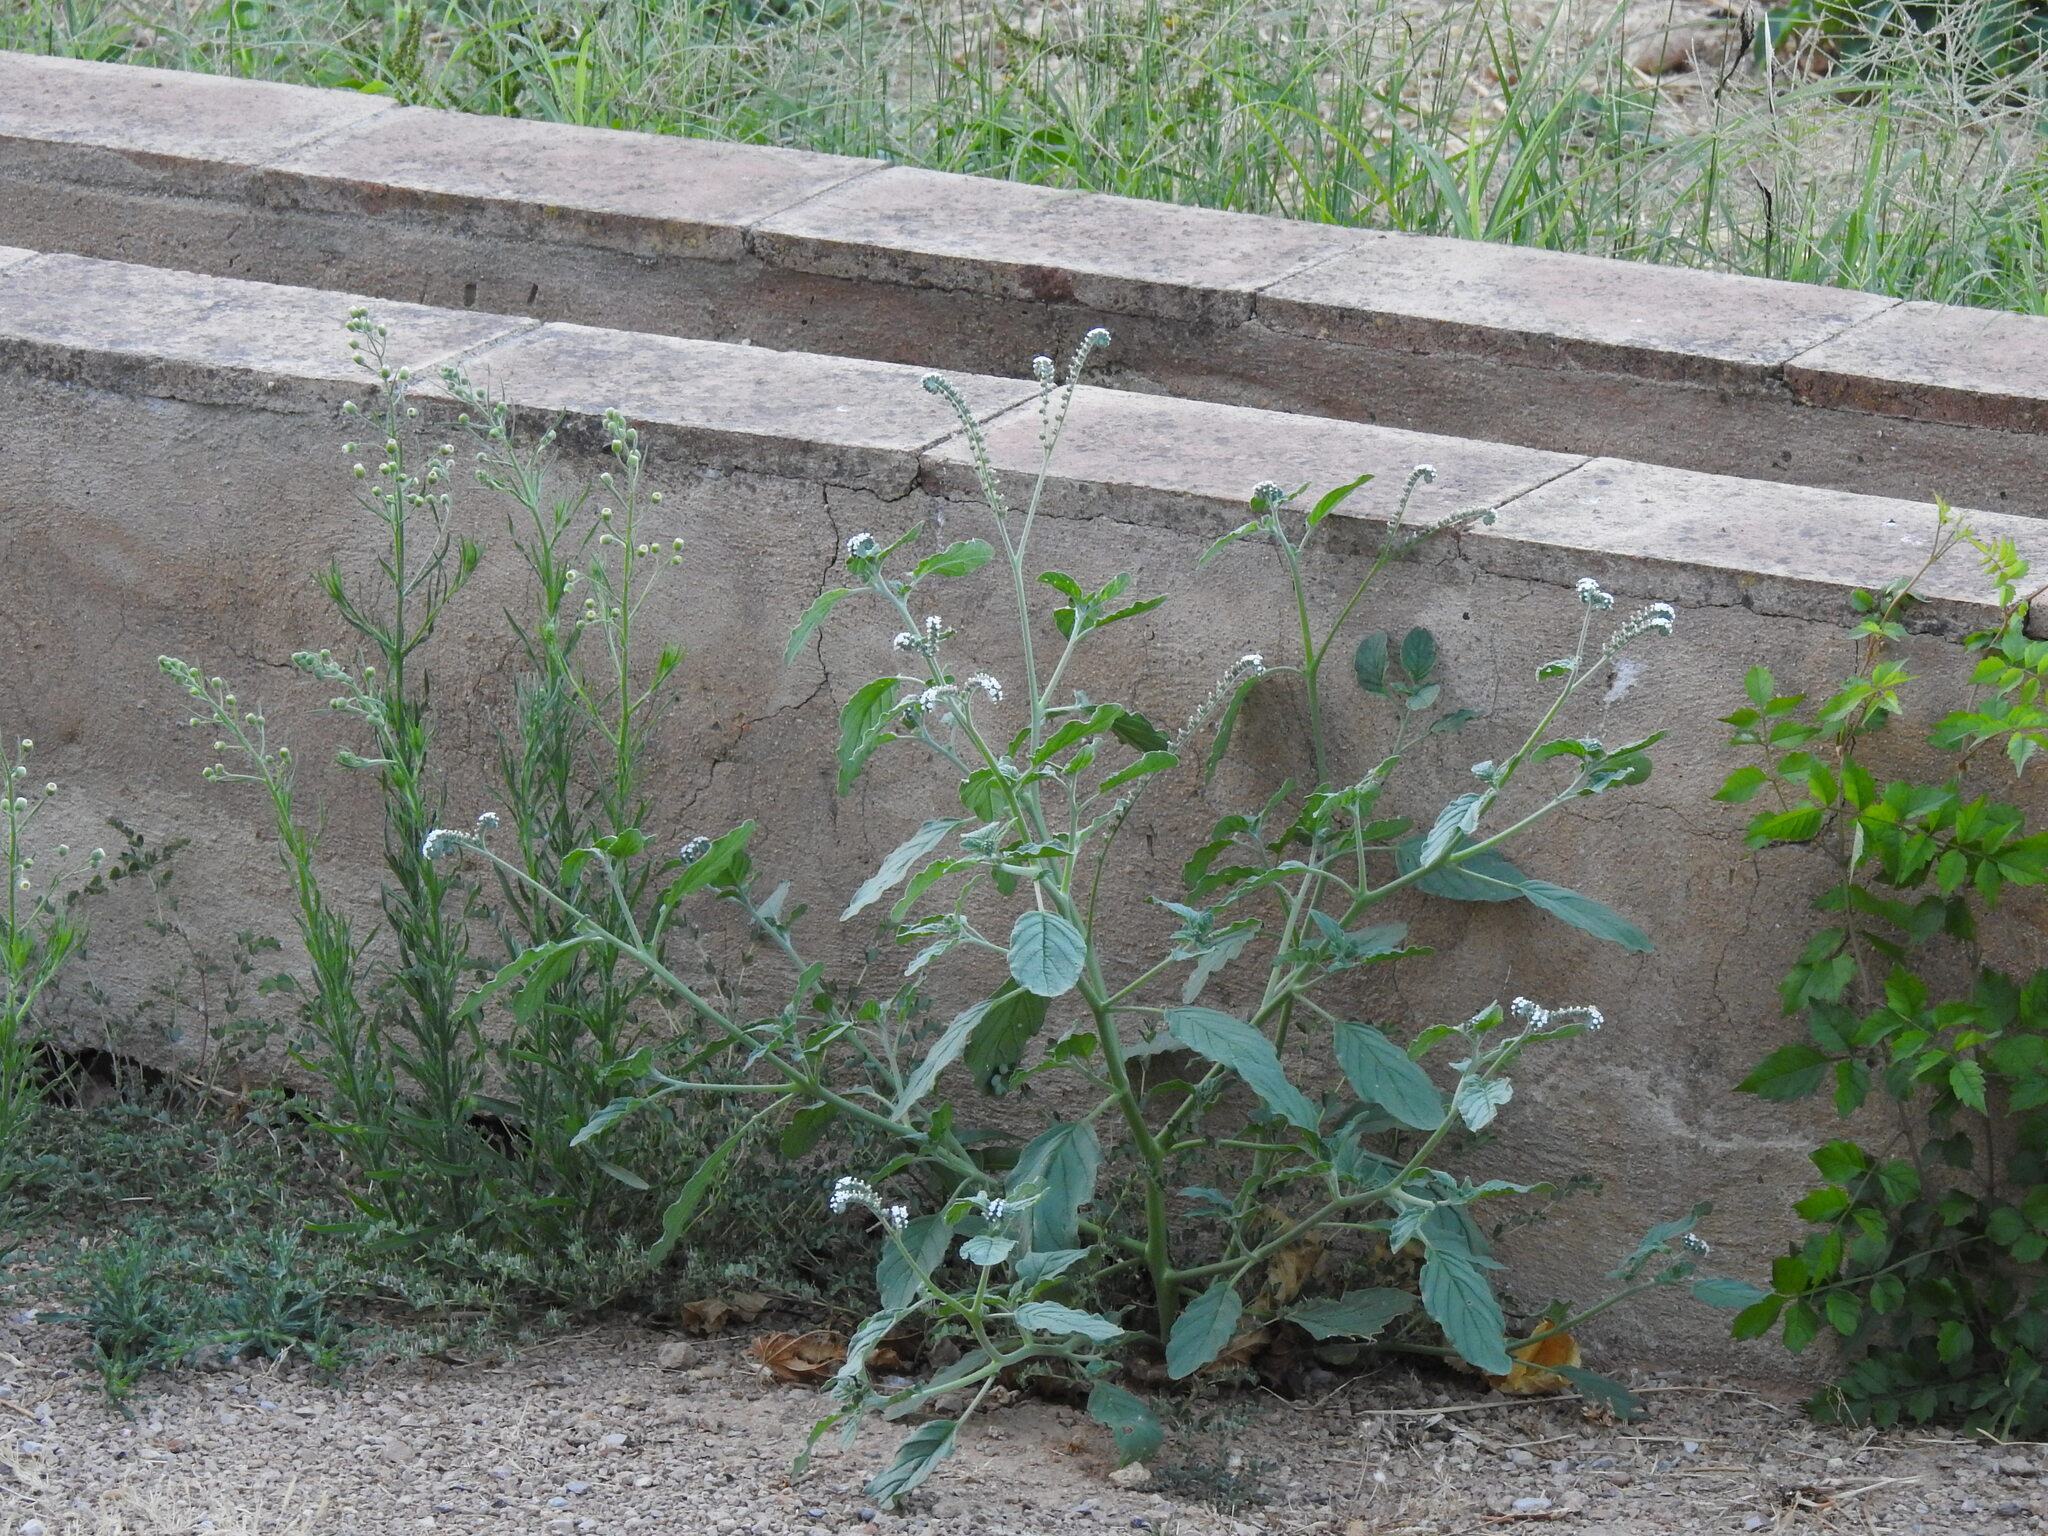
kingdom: Plantae
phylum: Tracheophyta
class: Magnoliopsida
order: Boraginales
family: Heliotropiaceae
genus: Heliotropium
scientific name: Heliotropium europaeum
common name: European heliotrope
